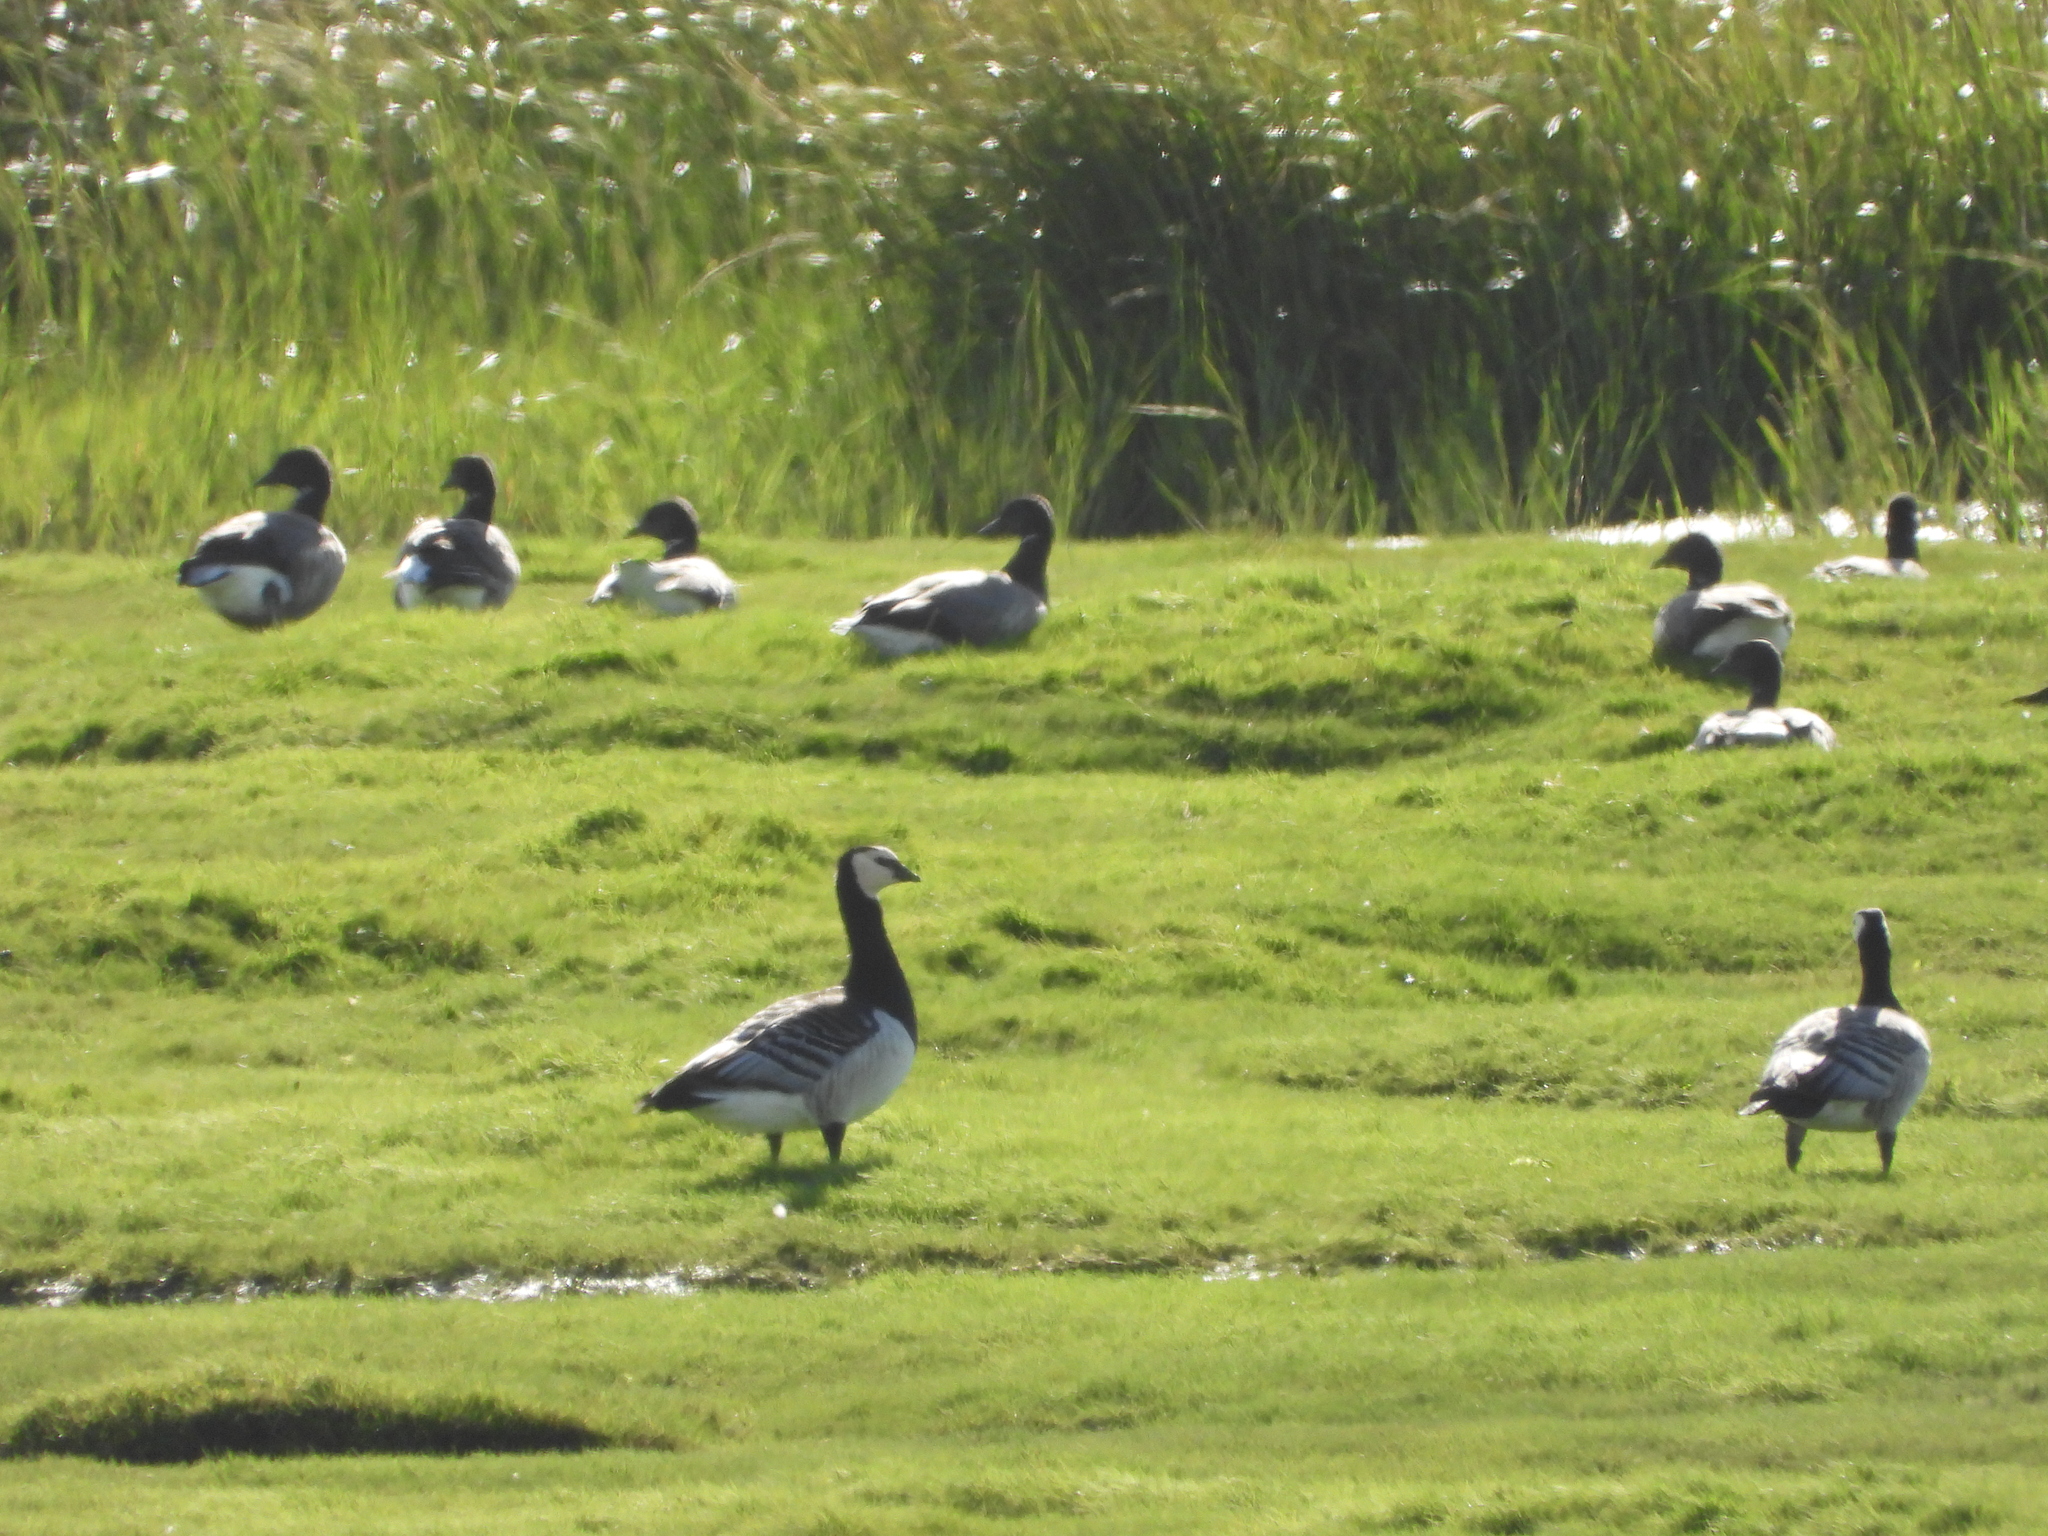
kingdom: Animalia
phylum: Chordata
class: Aves
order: Anseriformes
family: Anatidae
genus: Branta
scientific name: Branta leucopsis
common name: Barnacle goose
